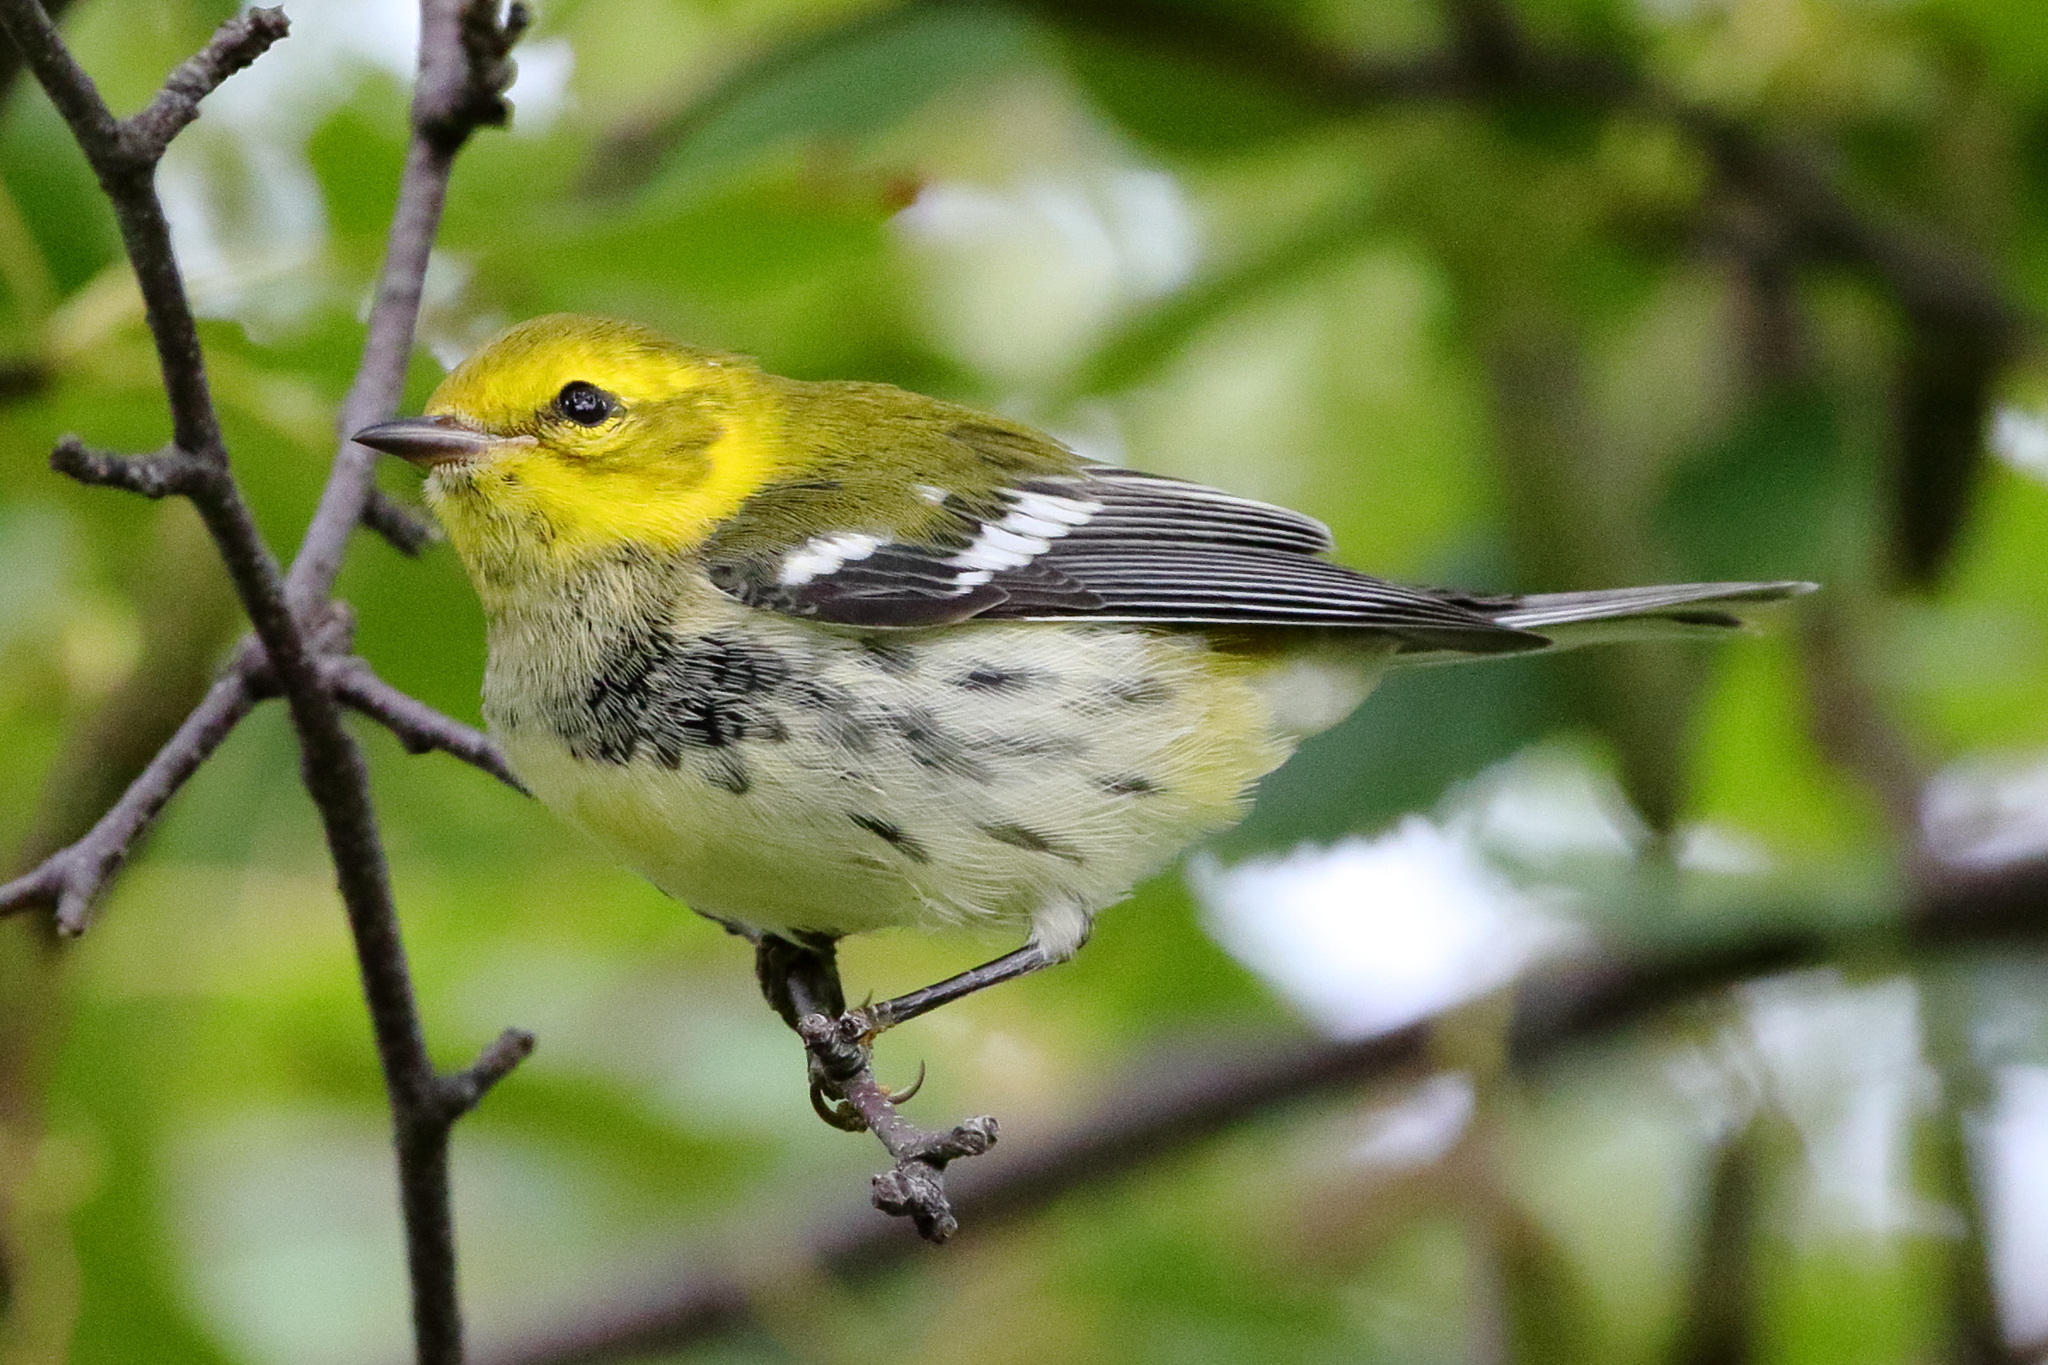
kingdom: Animalia
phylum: Chordata
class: Aves
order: Passeriformes
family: Parulidae
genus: Setophaga
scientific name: Setophaga virens
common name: Black-throated green warbler
